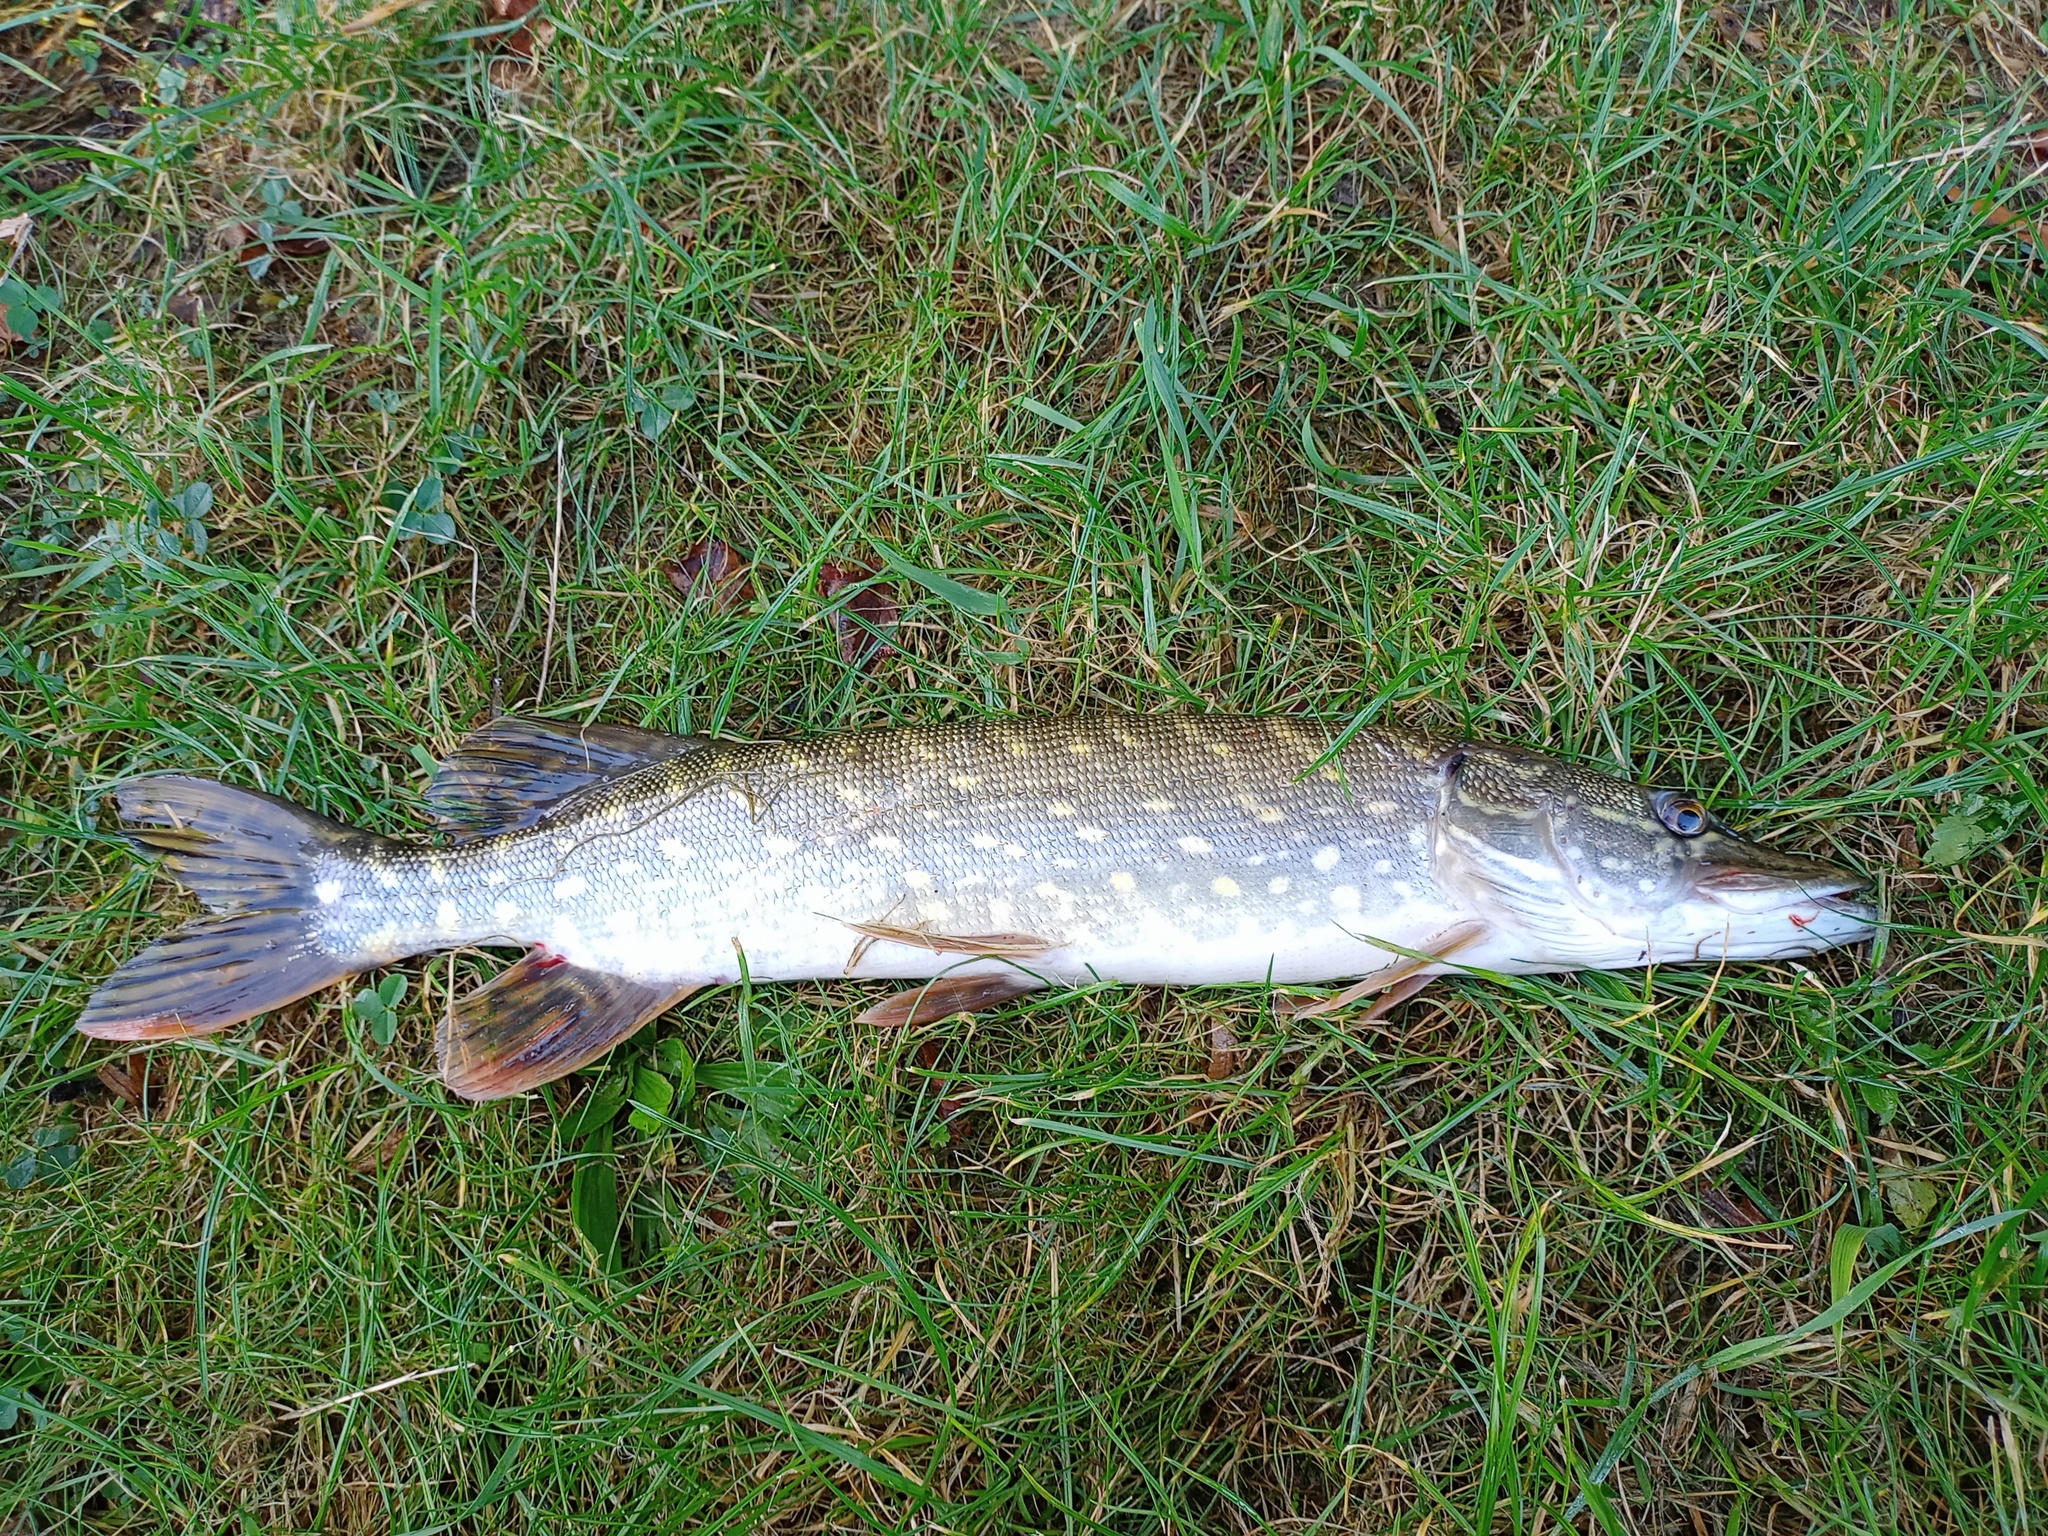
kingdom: Animalia
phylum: Chordata
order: Esociformes
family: Esocidae
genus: Esox
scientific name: Esox lucius
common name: Northern pike
